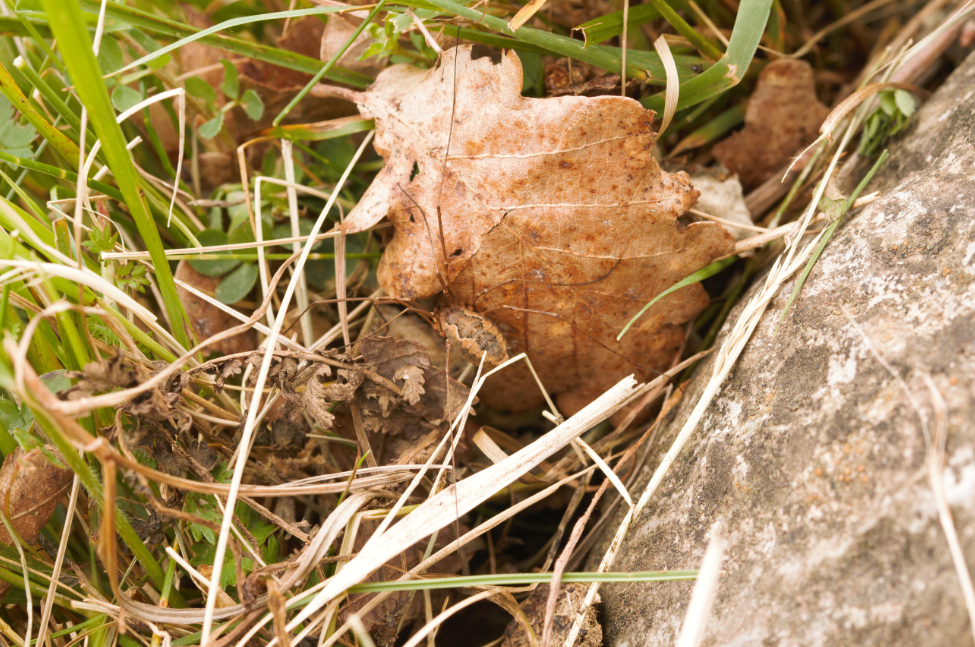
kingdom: Animalia
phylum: Arthropoda
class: Arachnida
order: Opiliones
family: Phalangiidae
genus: Phalangium
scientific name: Phalangium opilio
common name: Daddy longleg
